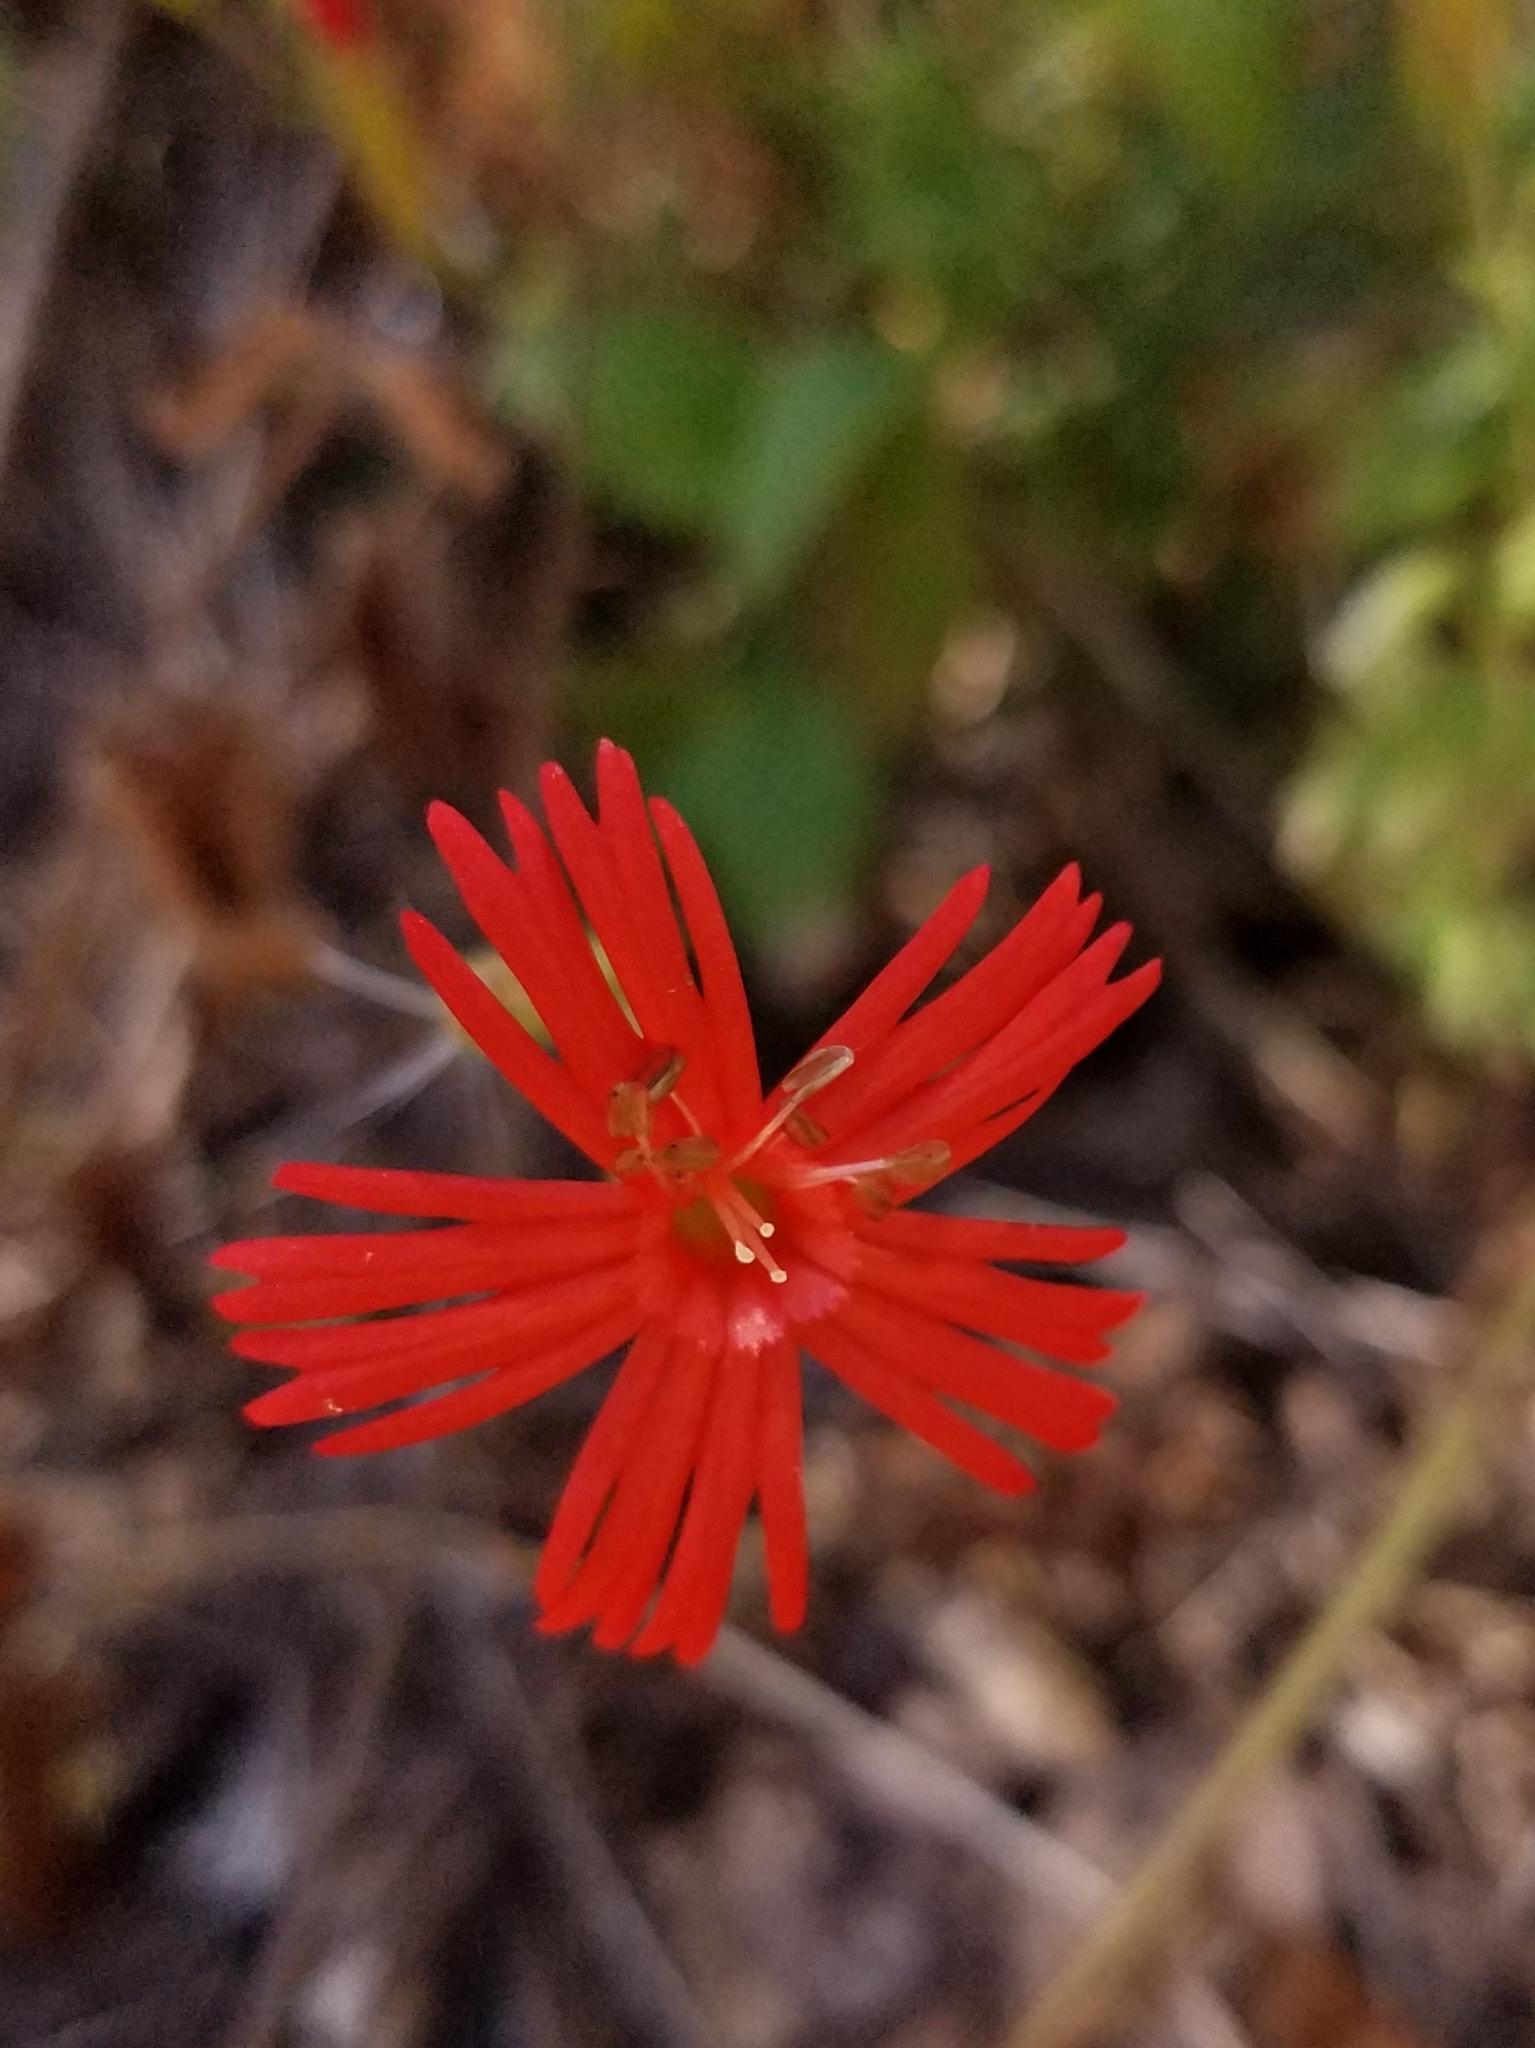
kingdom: Plantae
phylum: Tracheophyta
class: Magnoliopsida
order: Caryophyllales
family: Caryophyllaceae
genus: Silene
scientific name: Silene laciniata
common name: Indian-pink
